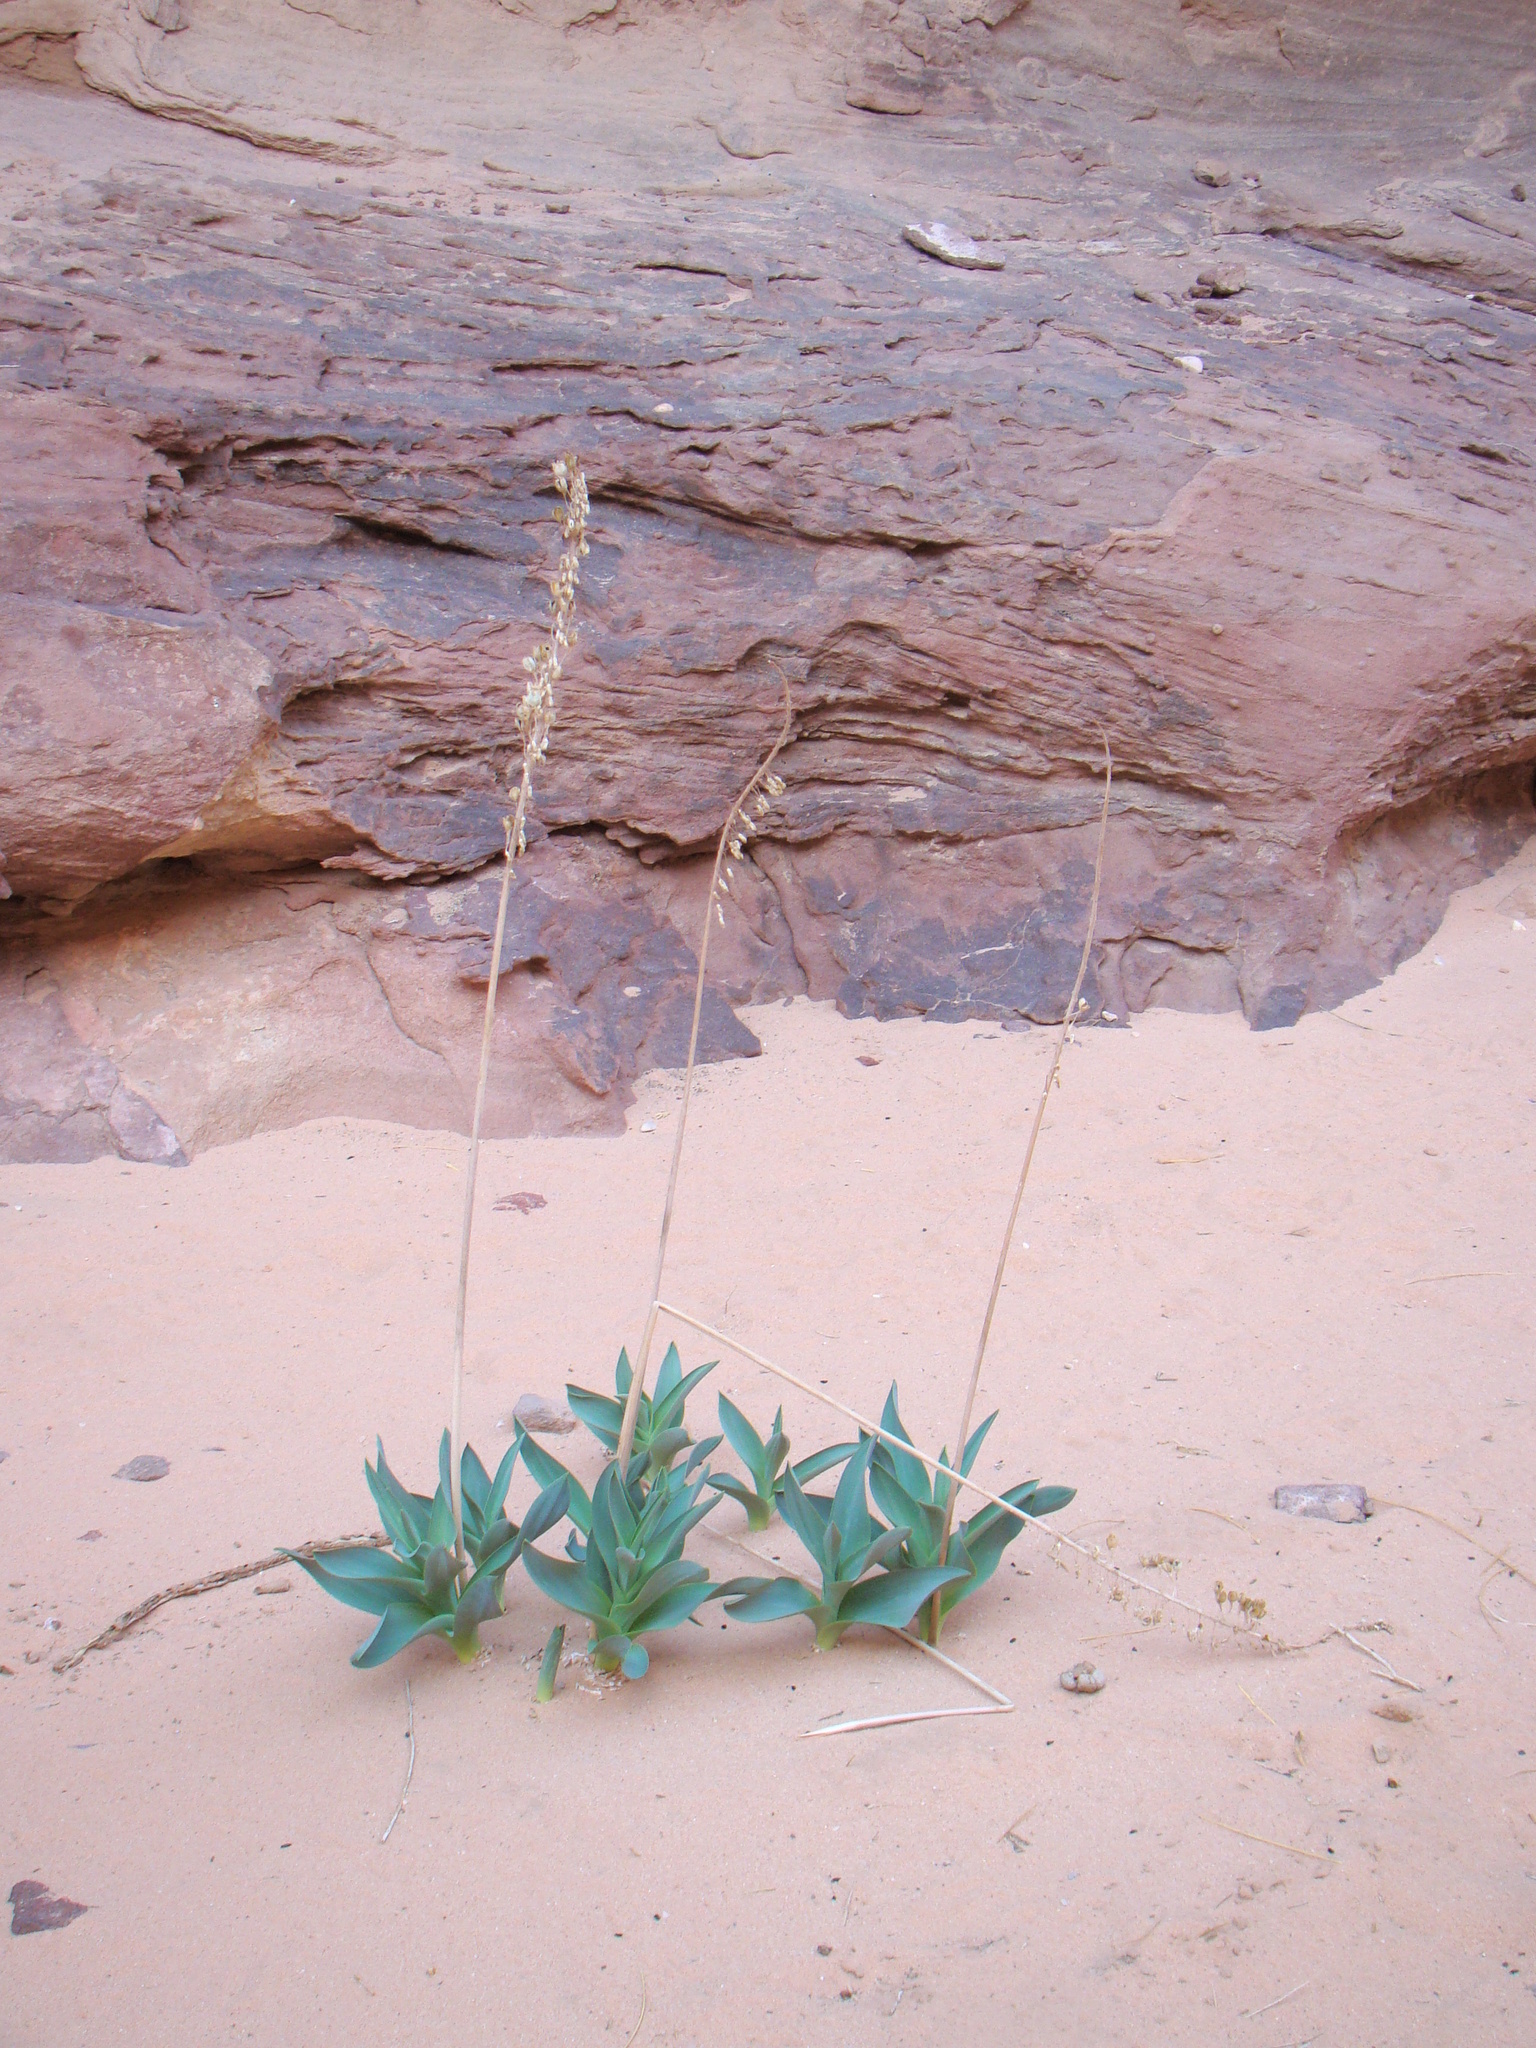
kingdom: Plantae
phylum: Tracheophyta
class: Liliopsida
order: Asparagales
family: Asparagaceae
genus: Drimia
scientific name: Drimia aphylla
